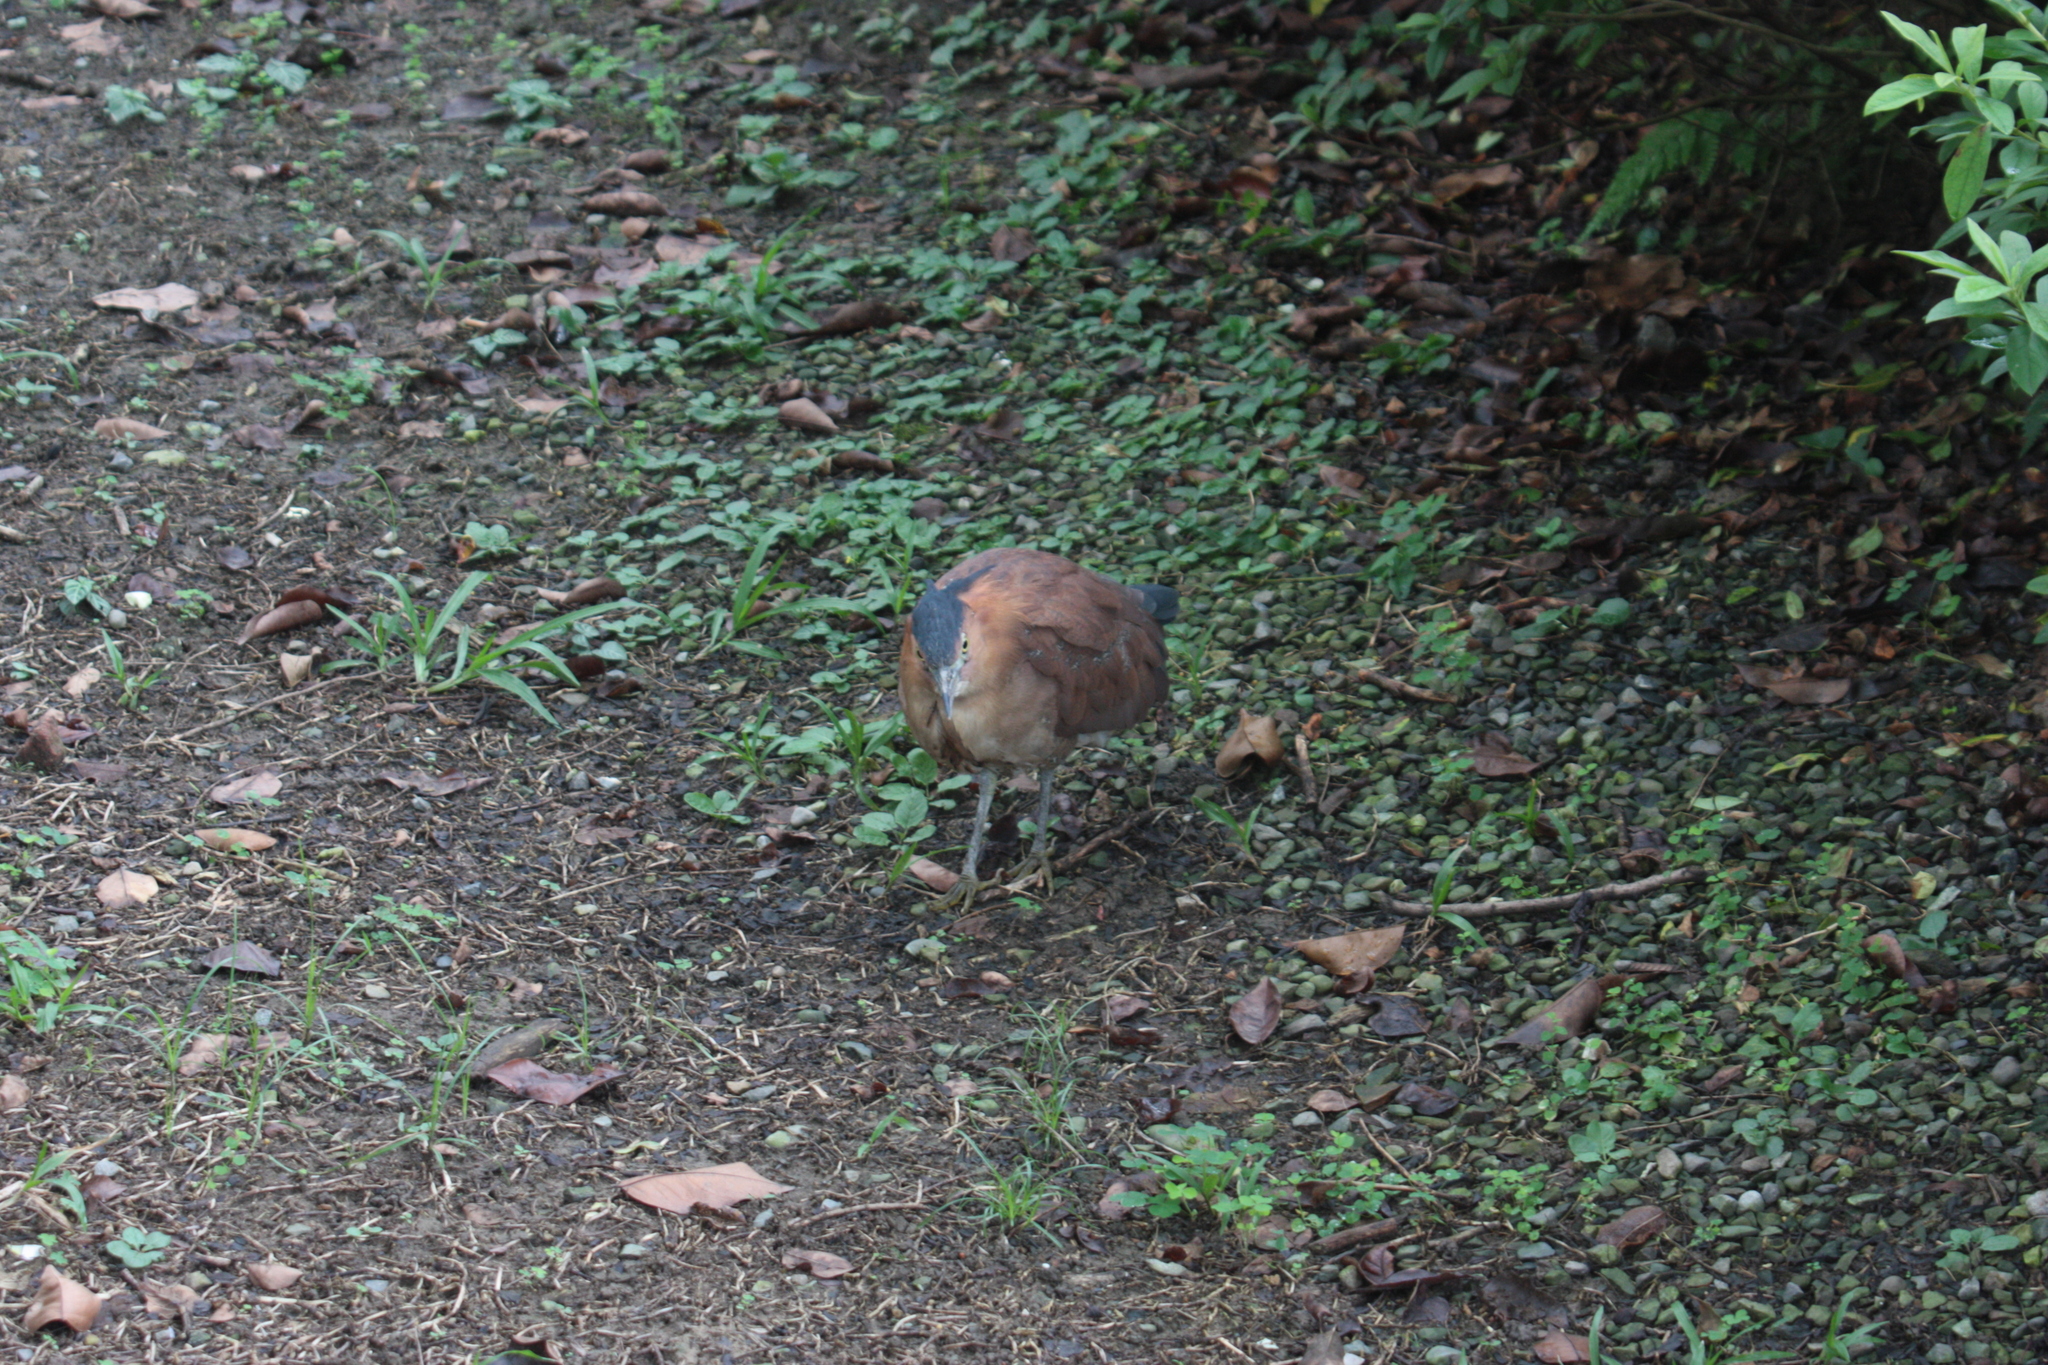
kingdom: Animalia
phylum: Chordata
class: Aves
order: Pelecaniformes
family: Ardeidae
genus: Gorsachius
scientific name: Gorsachius melanolophus
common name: Malayan night heron
